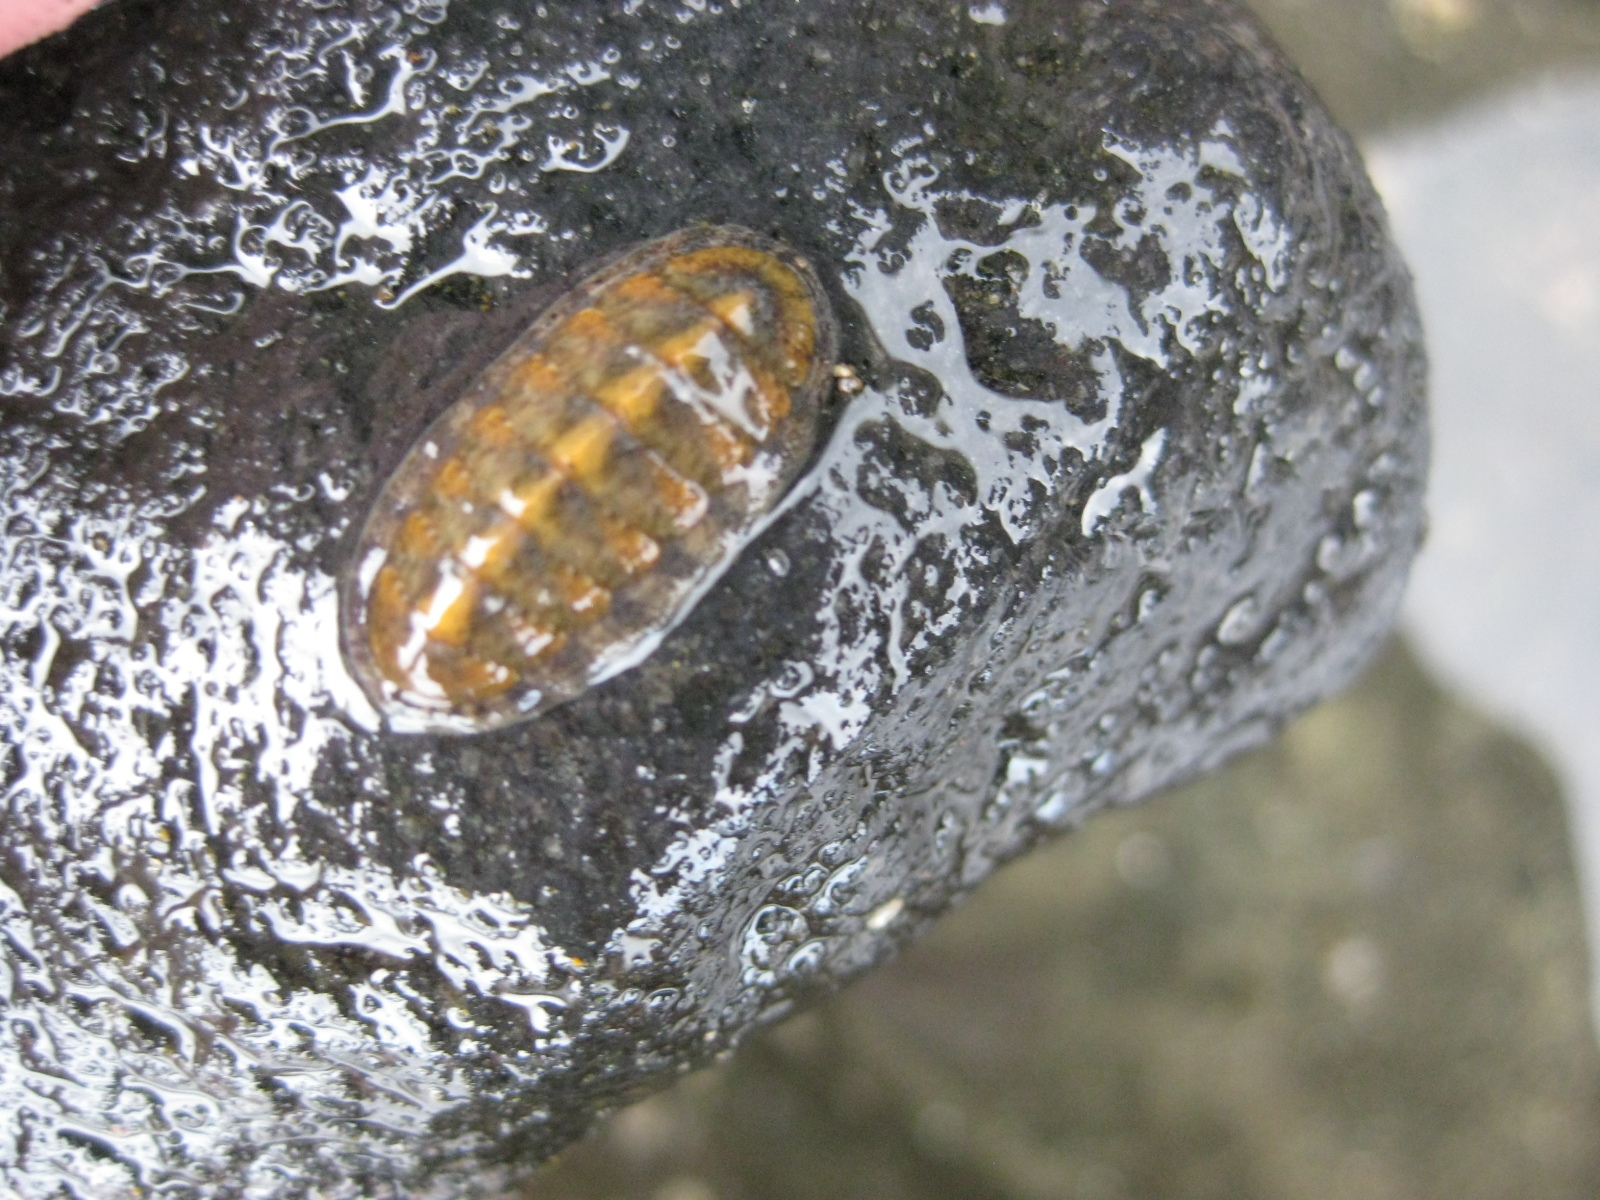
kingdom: Animalia
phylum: Mollusca
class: Polyplacophora
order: Chitonida
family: Ischnochitonidae
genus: Ischnochiton
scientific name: Ischnochiton maorianus
